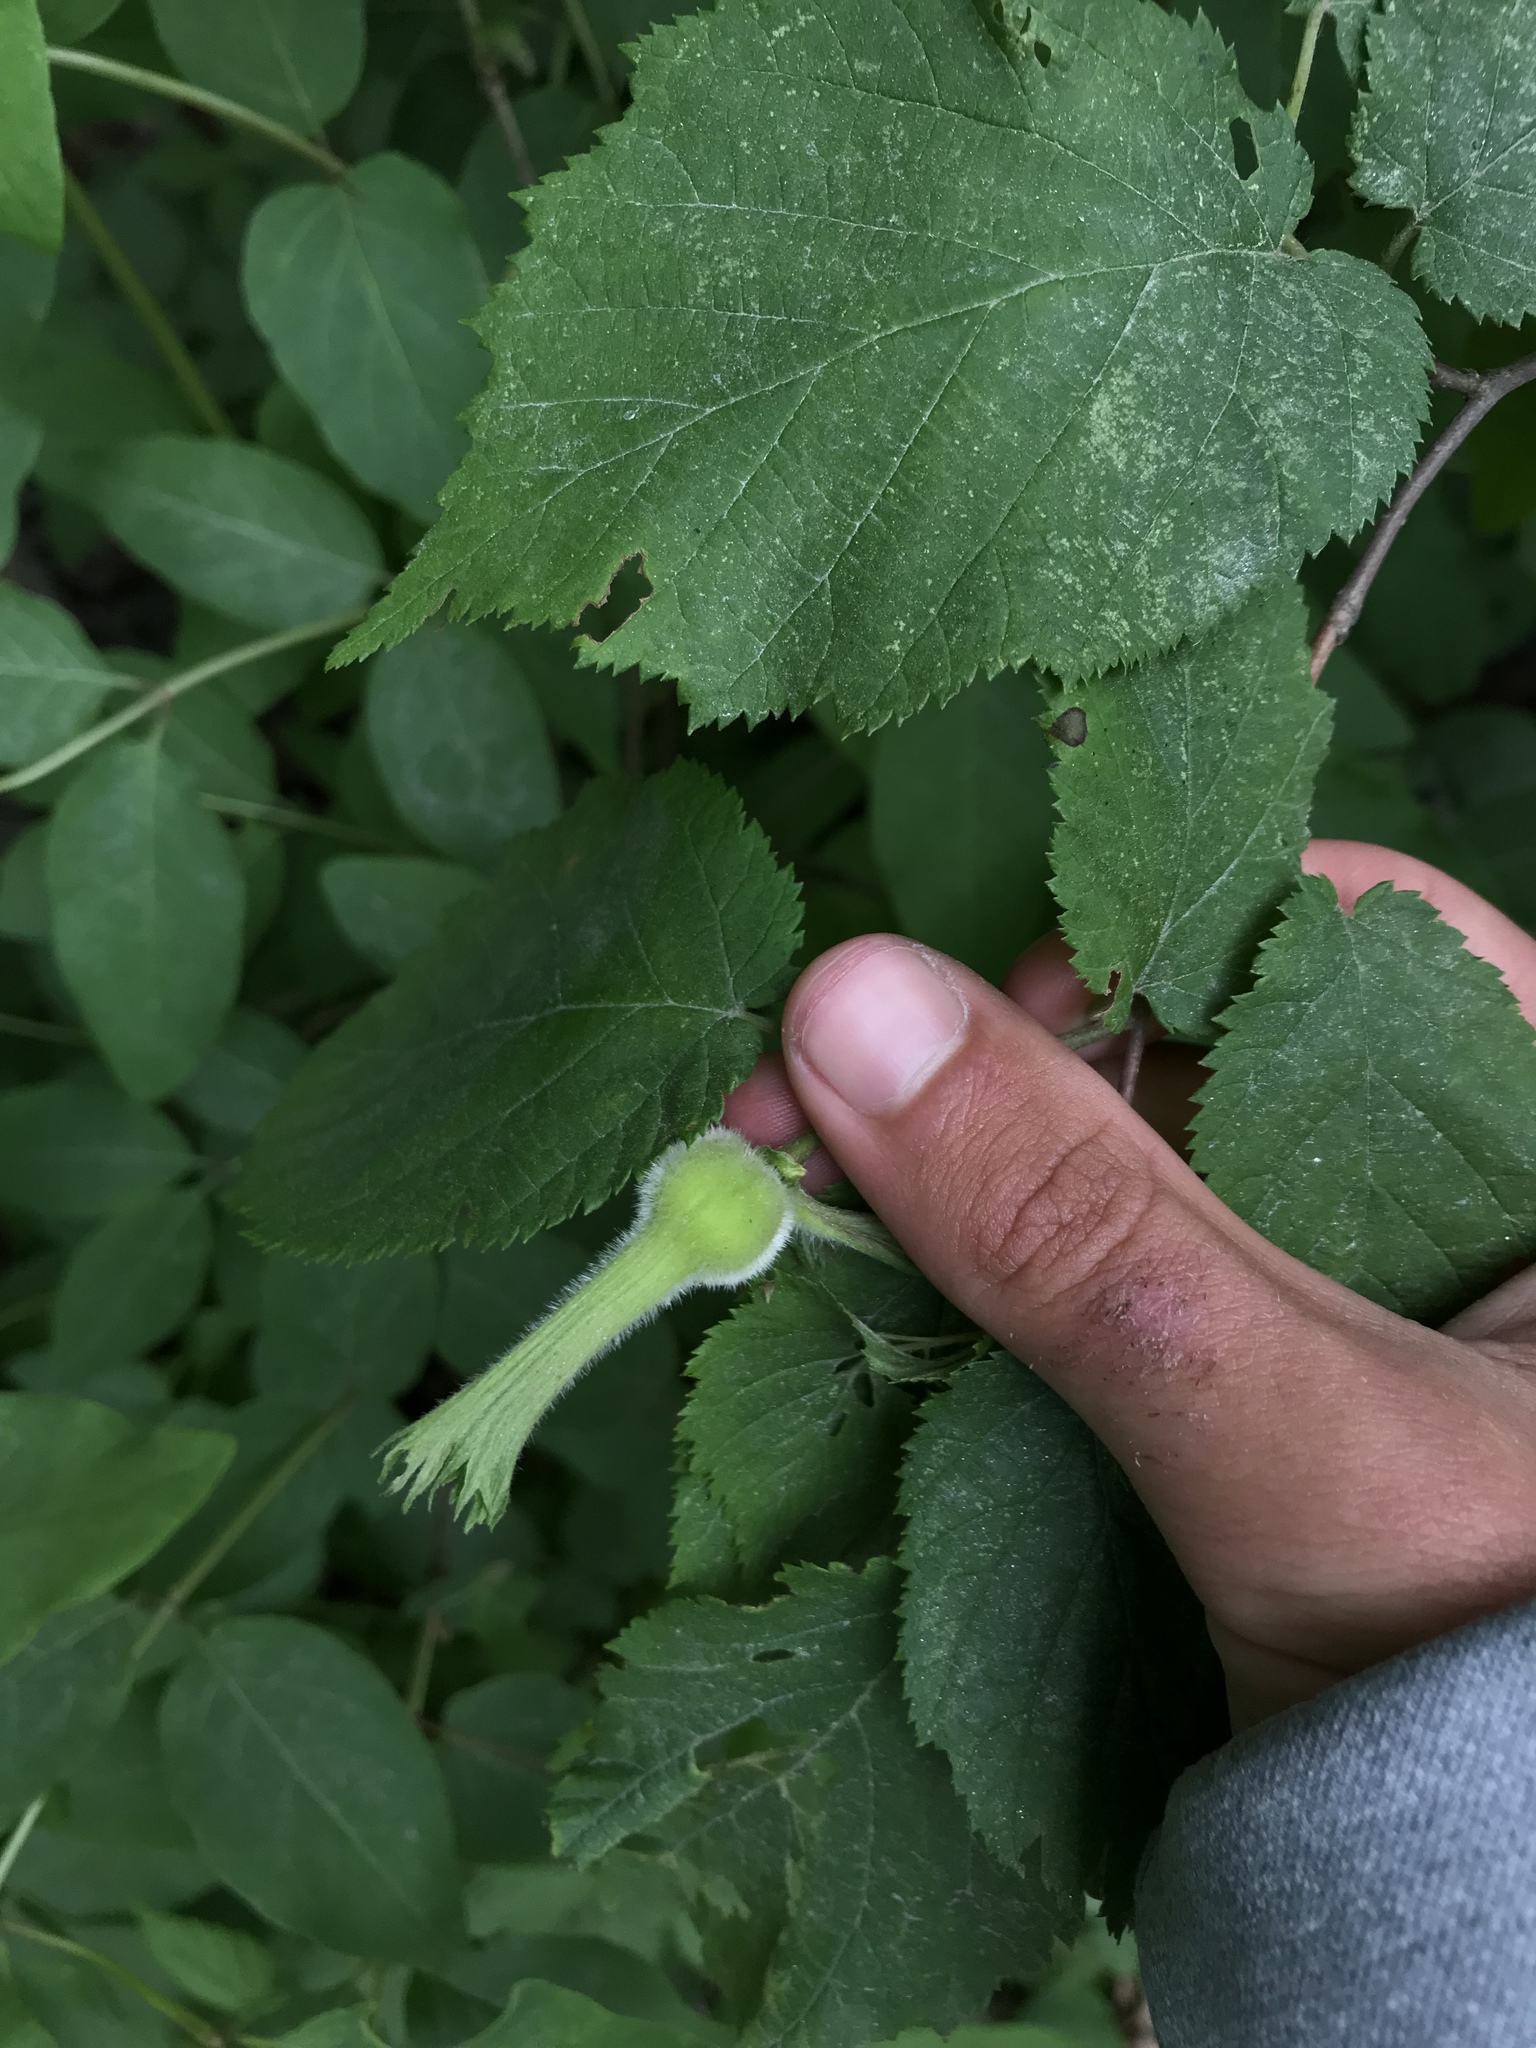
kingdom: Plantae
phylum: Tracheophyta
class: Magnoliopsida
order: Fagales
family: Betulaceae
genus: Corylus
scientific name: Corylus cornuta
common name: Beaked hazel
